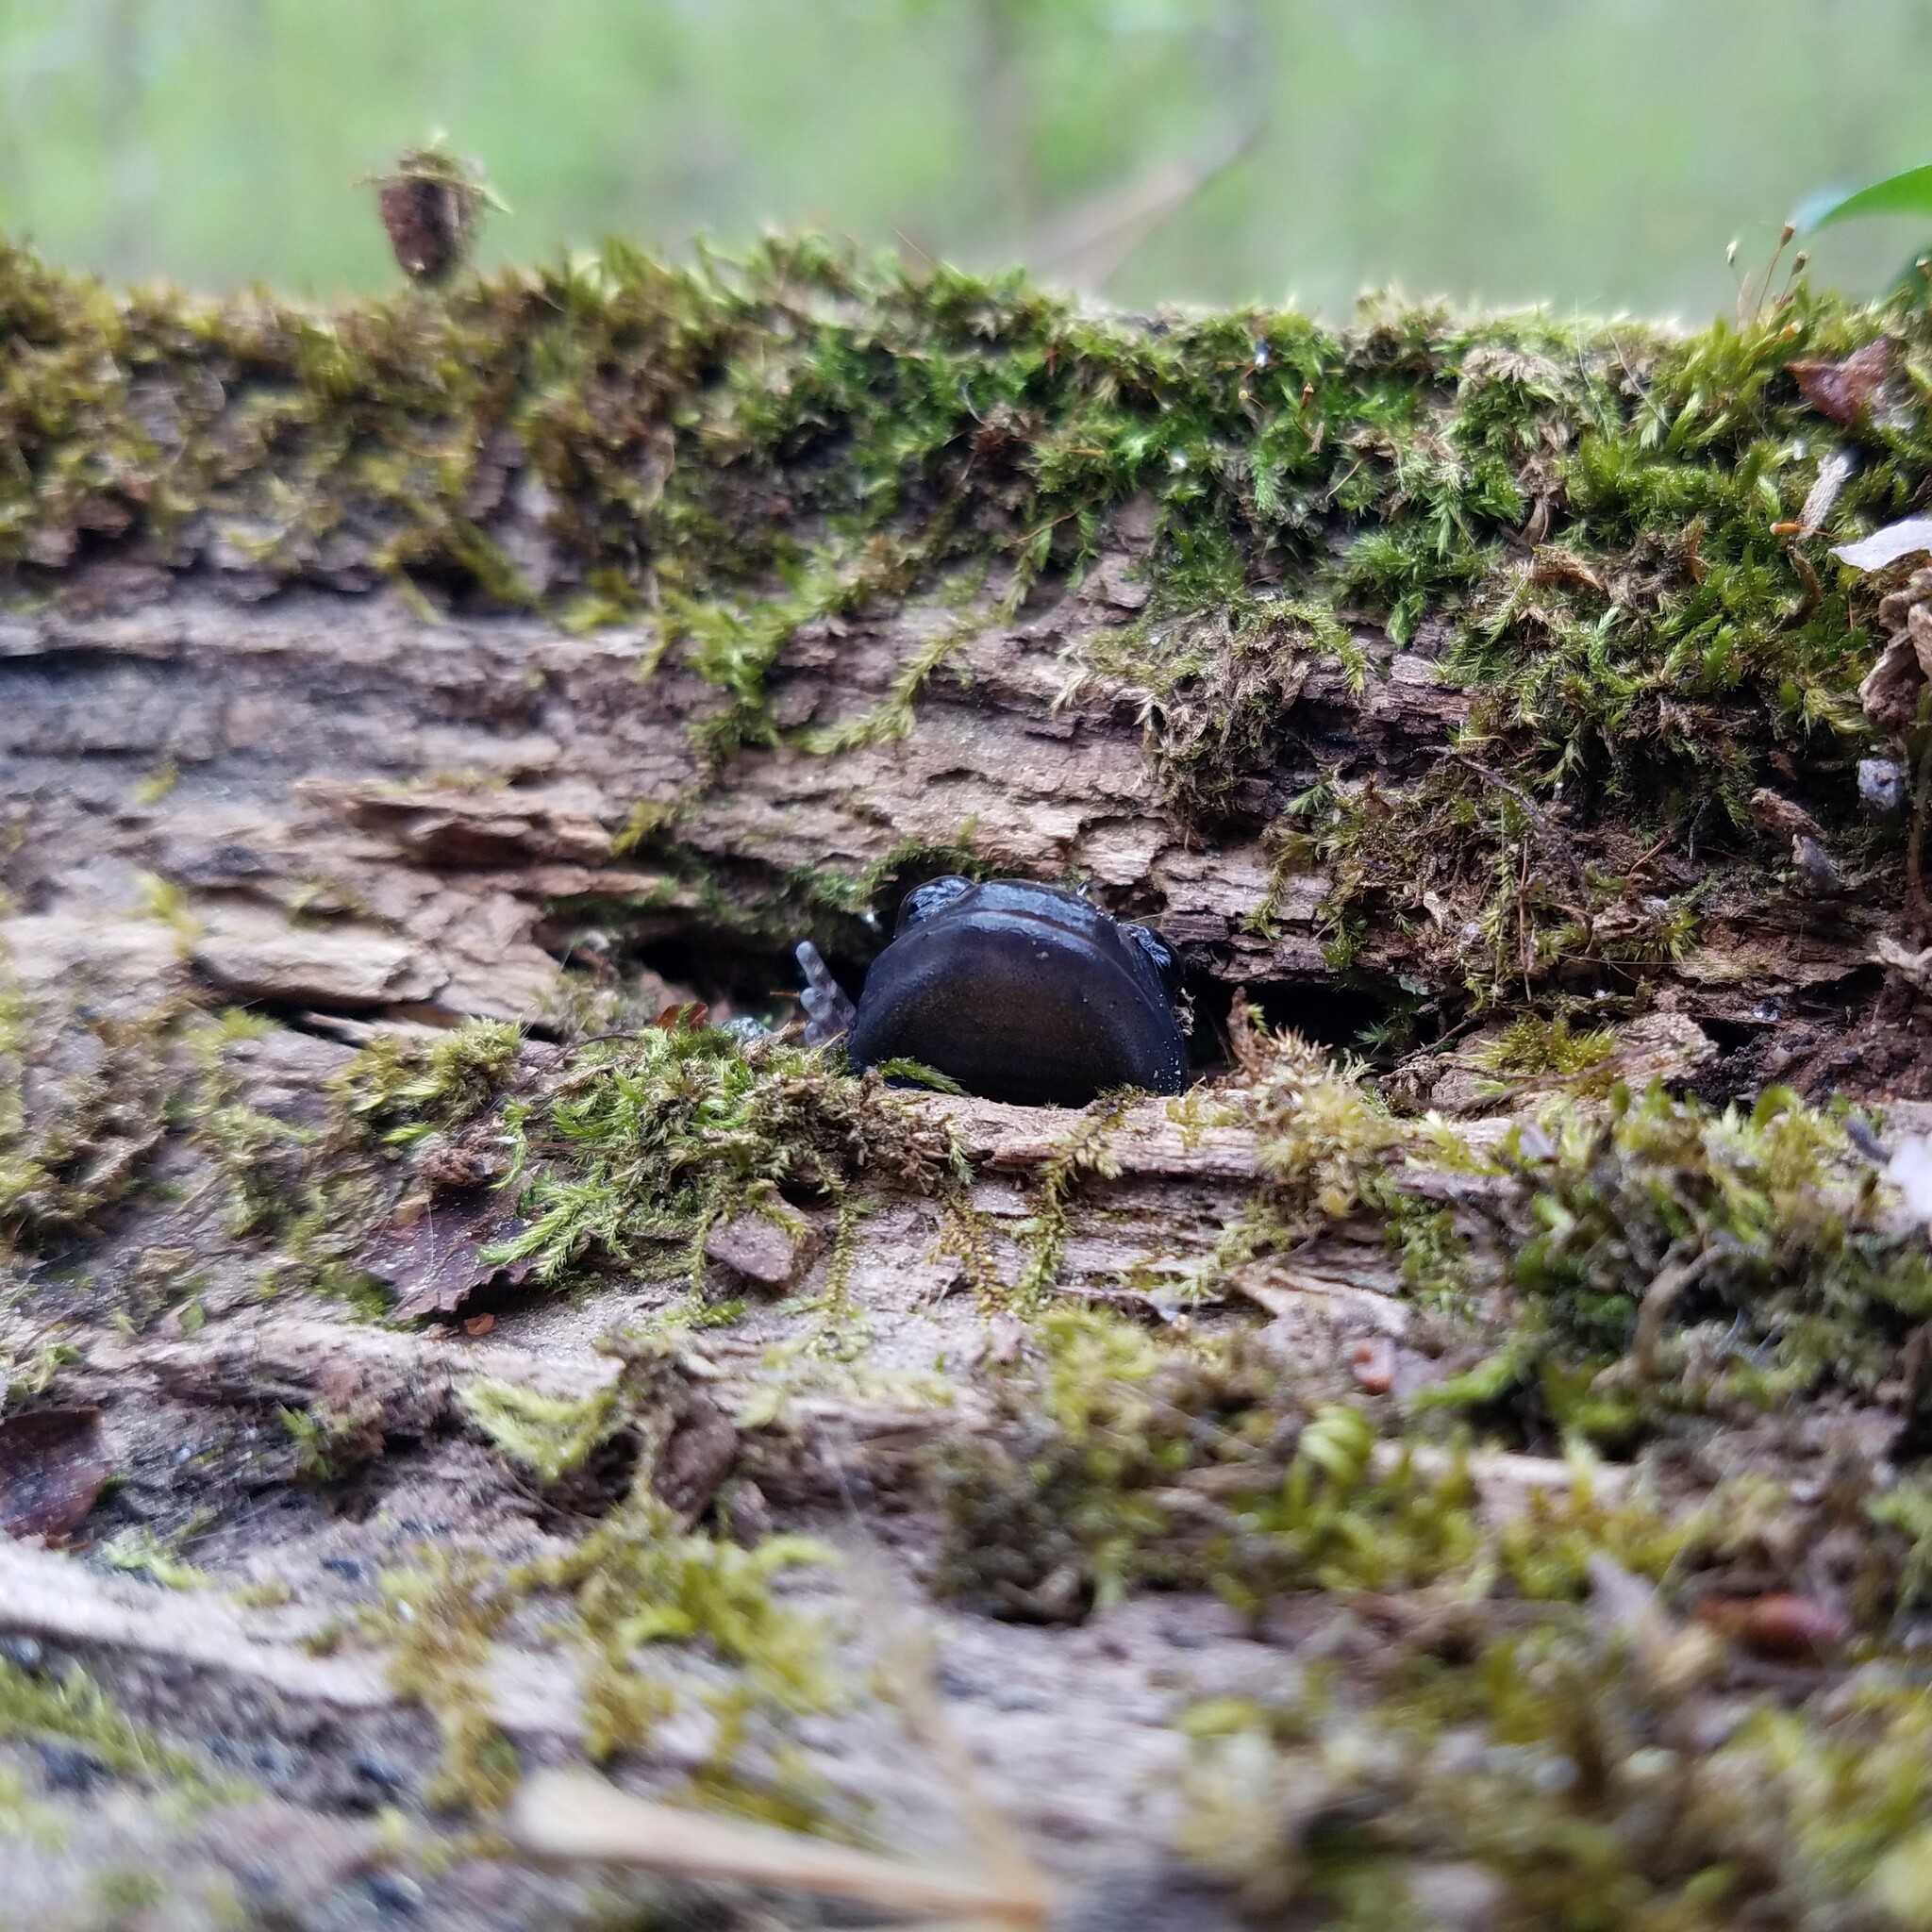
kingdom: Animalia
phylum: Chordata
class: Amphibia
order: Caudata
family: Ambystomatidae
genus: Ambystoma
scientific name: Ambystoma opacum
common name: Marbled salamander
